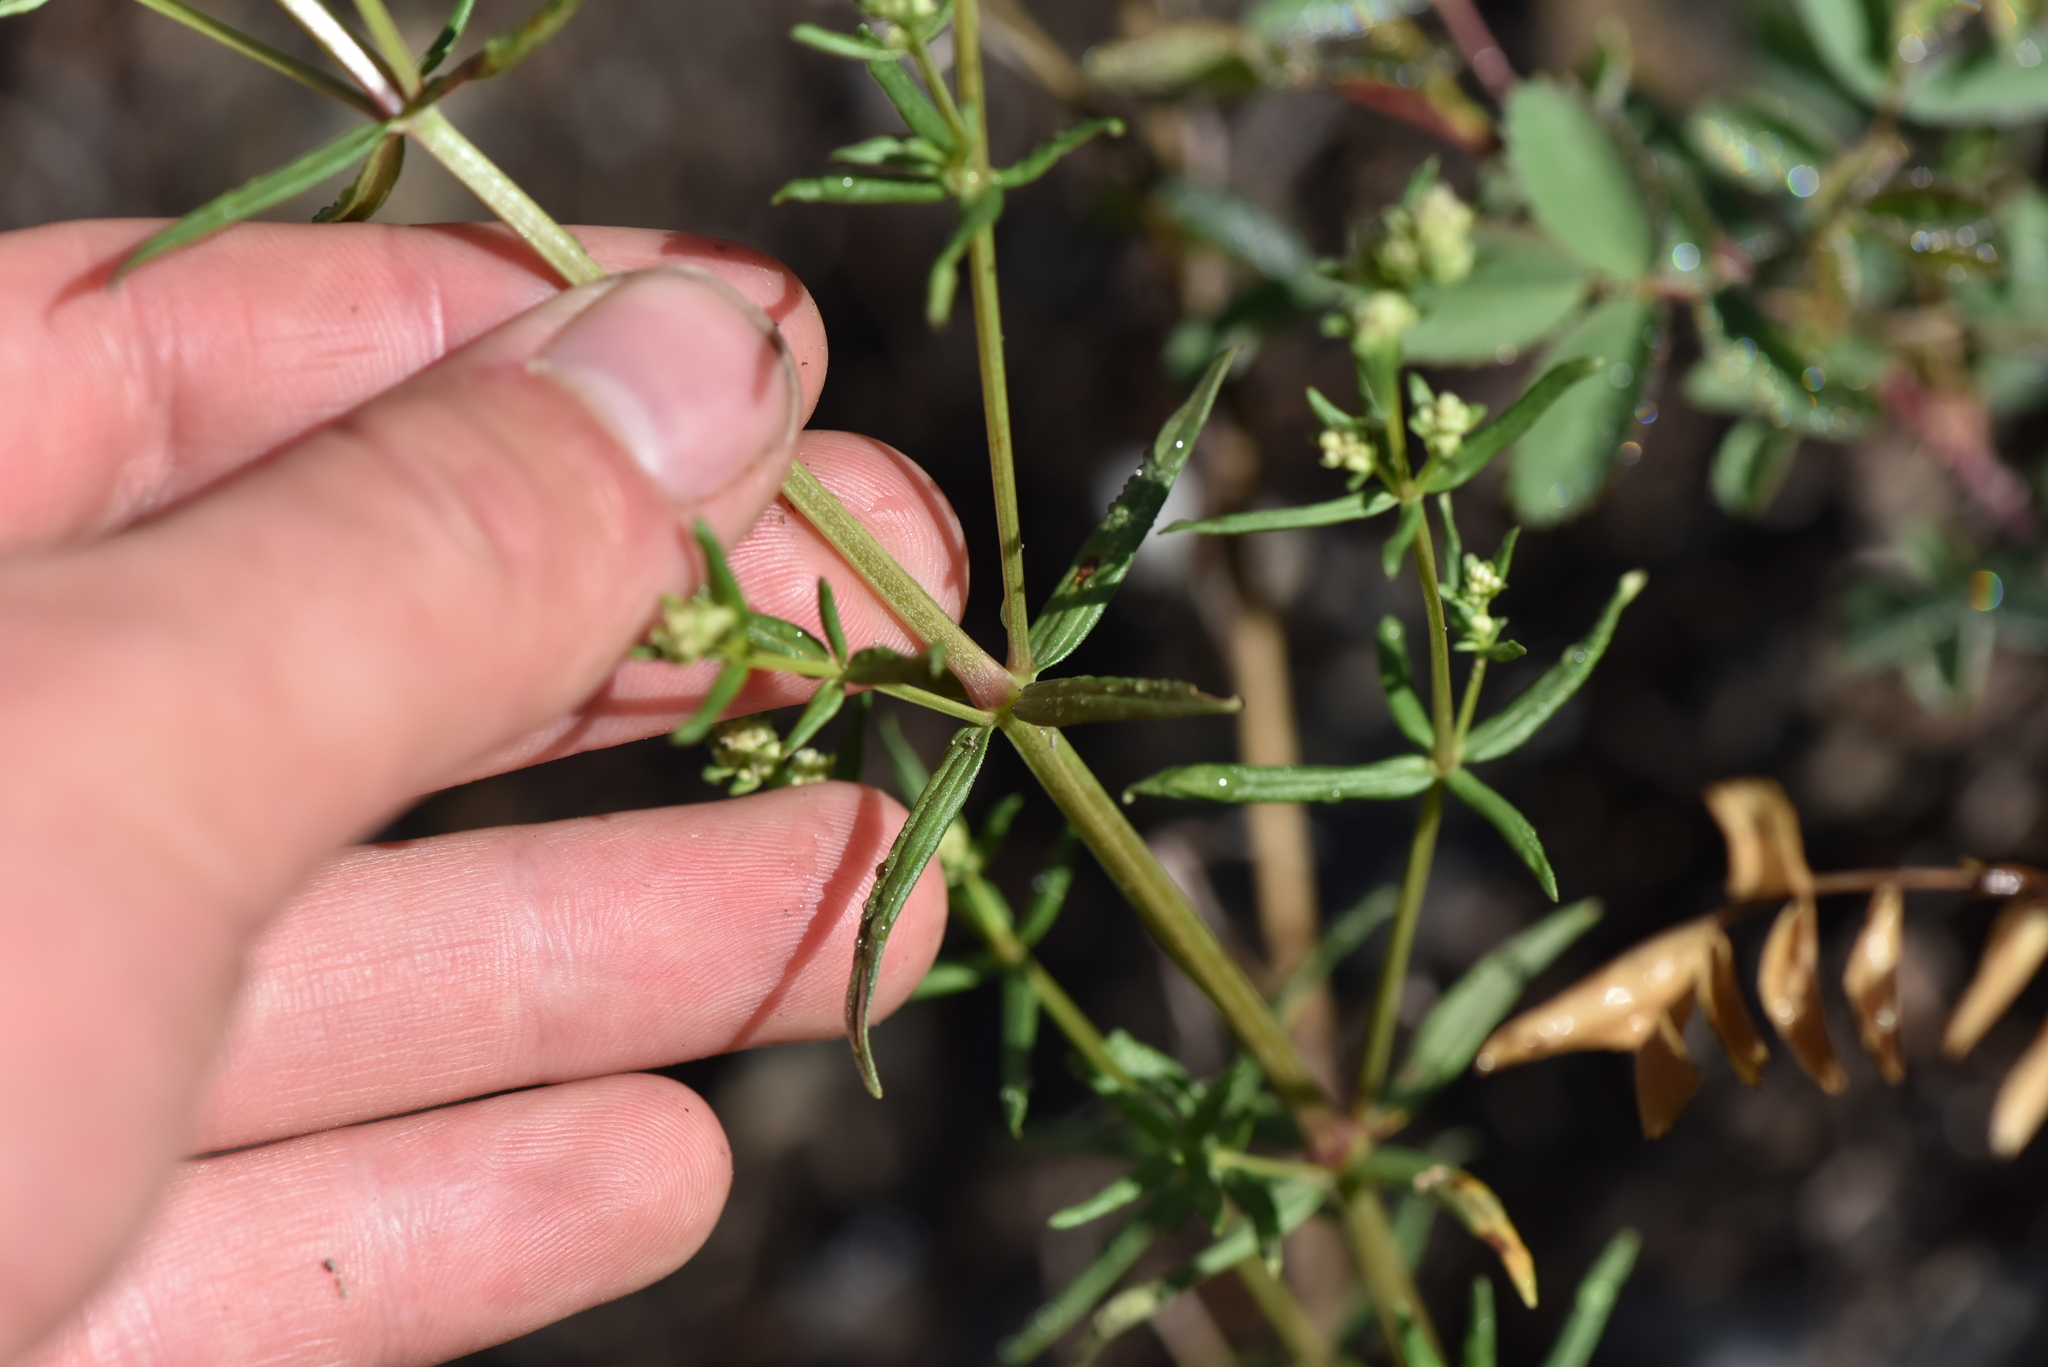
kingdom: Plantae
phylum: Tracheophyta
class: Magnoliopsida
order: Gentianales
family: Rubiaceae
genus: Galium
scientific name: Galium boreale
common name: Northern bedstraw
